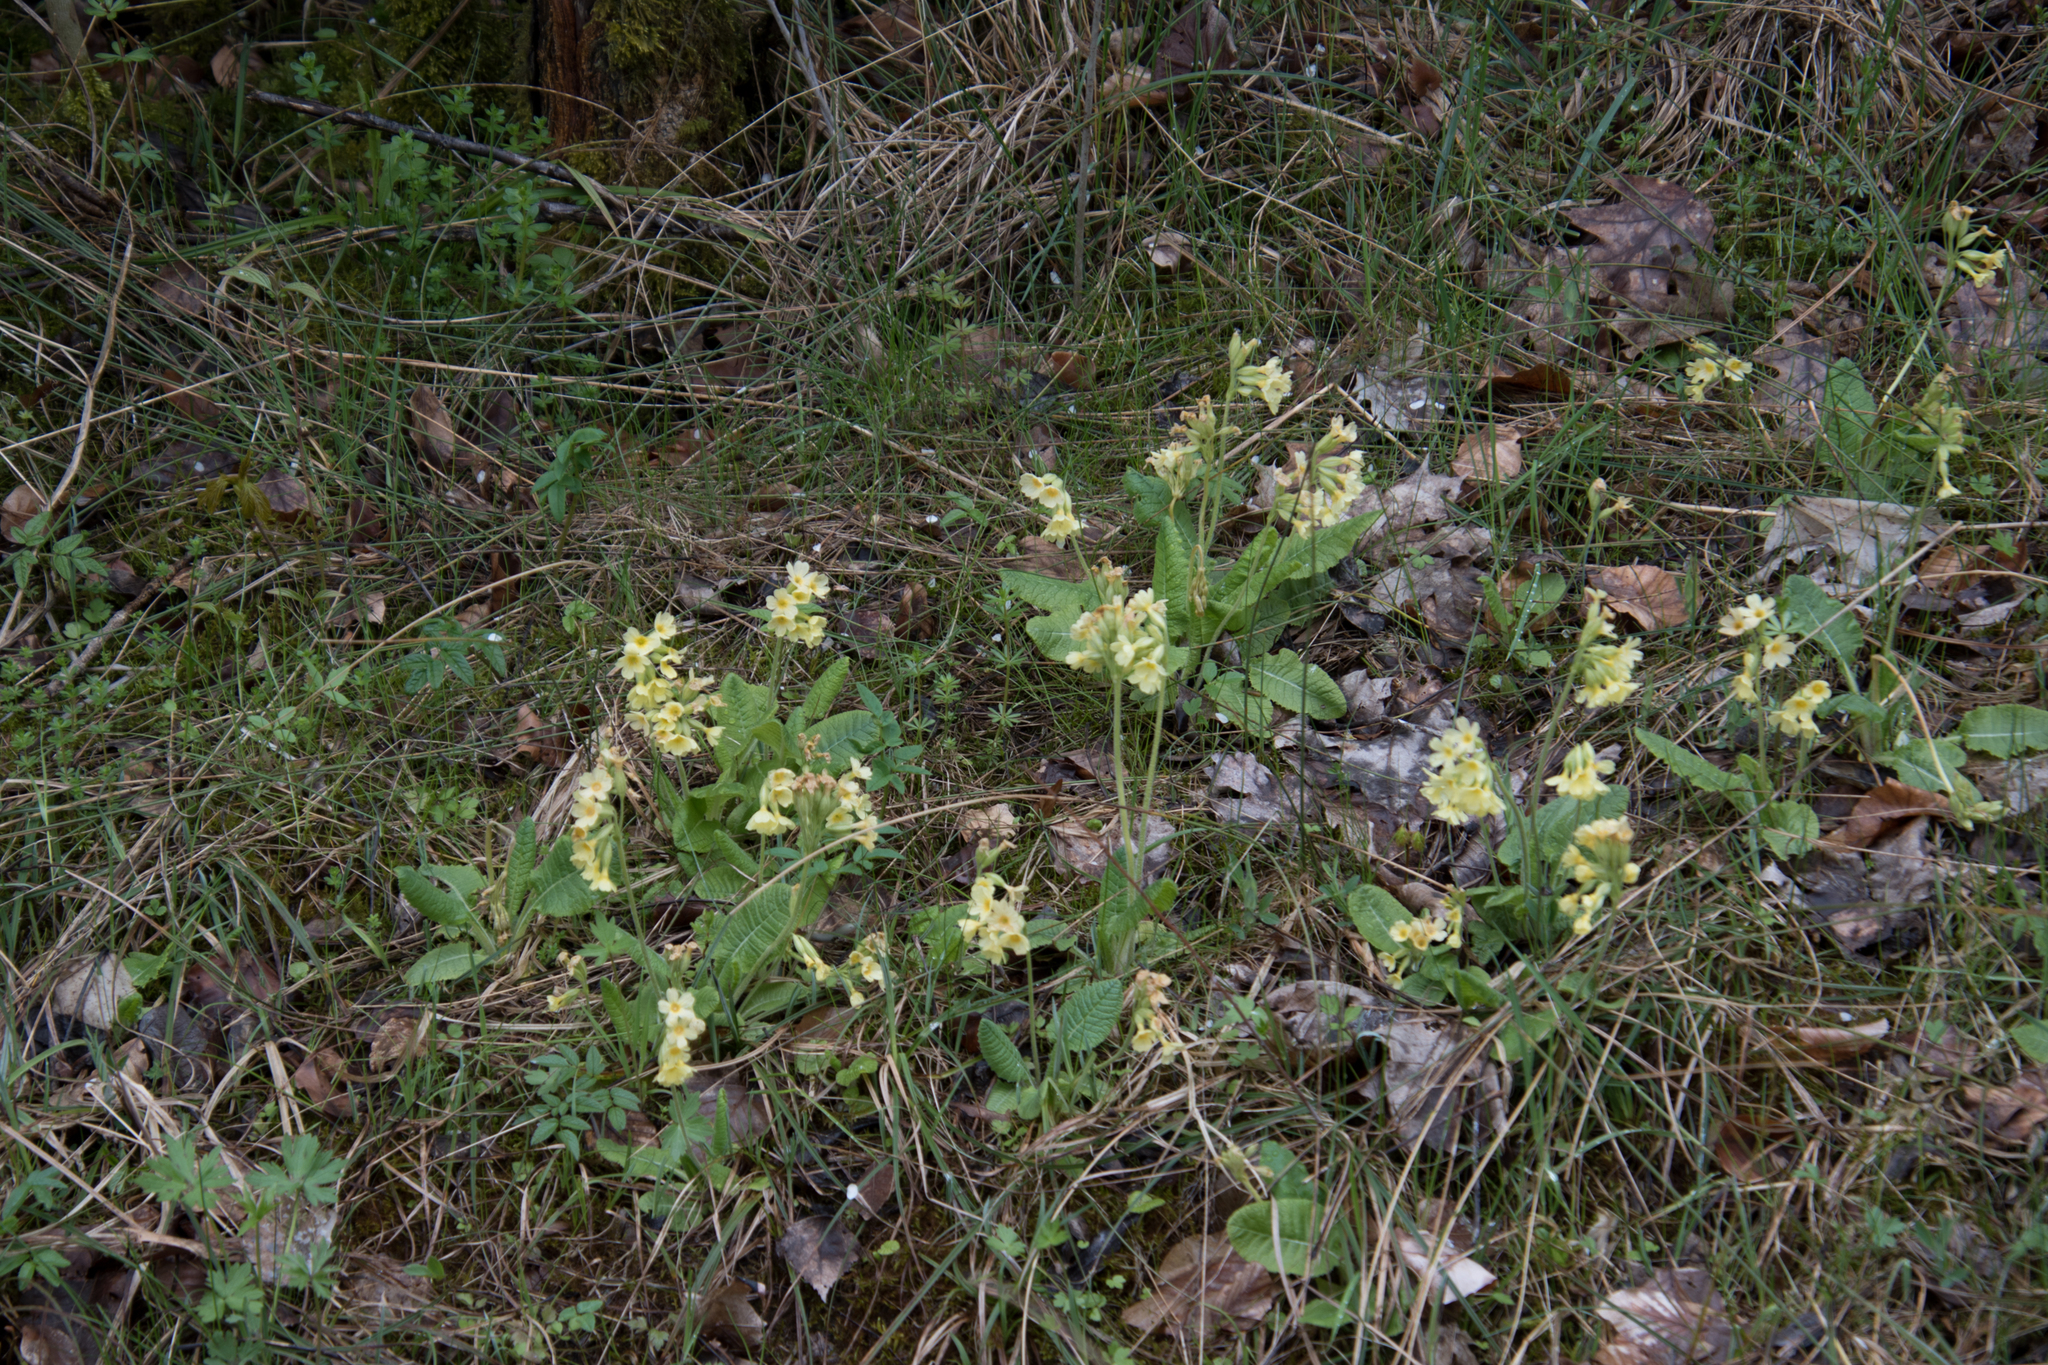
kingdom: Plantae
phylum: Tracheophyta
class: Magnoliopsida
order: Ericales
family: Primulaceae
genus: Primula
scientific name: Primula elatior
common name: Oxlip
